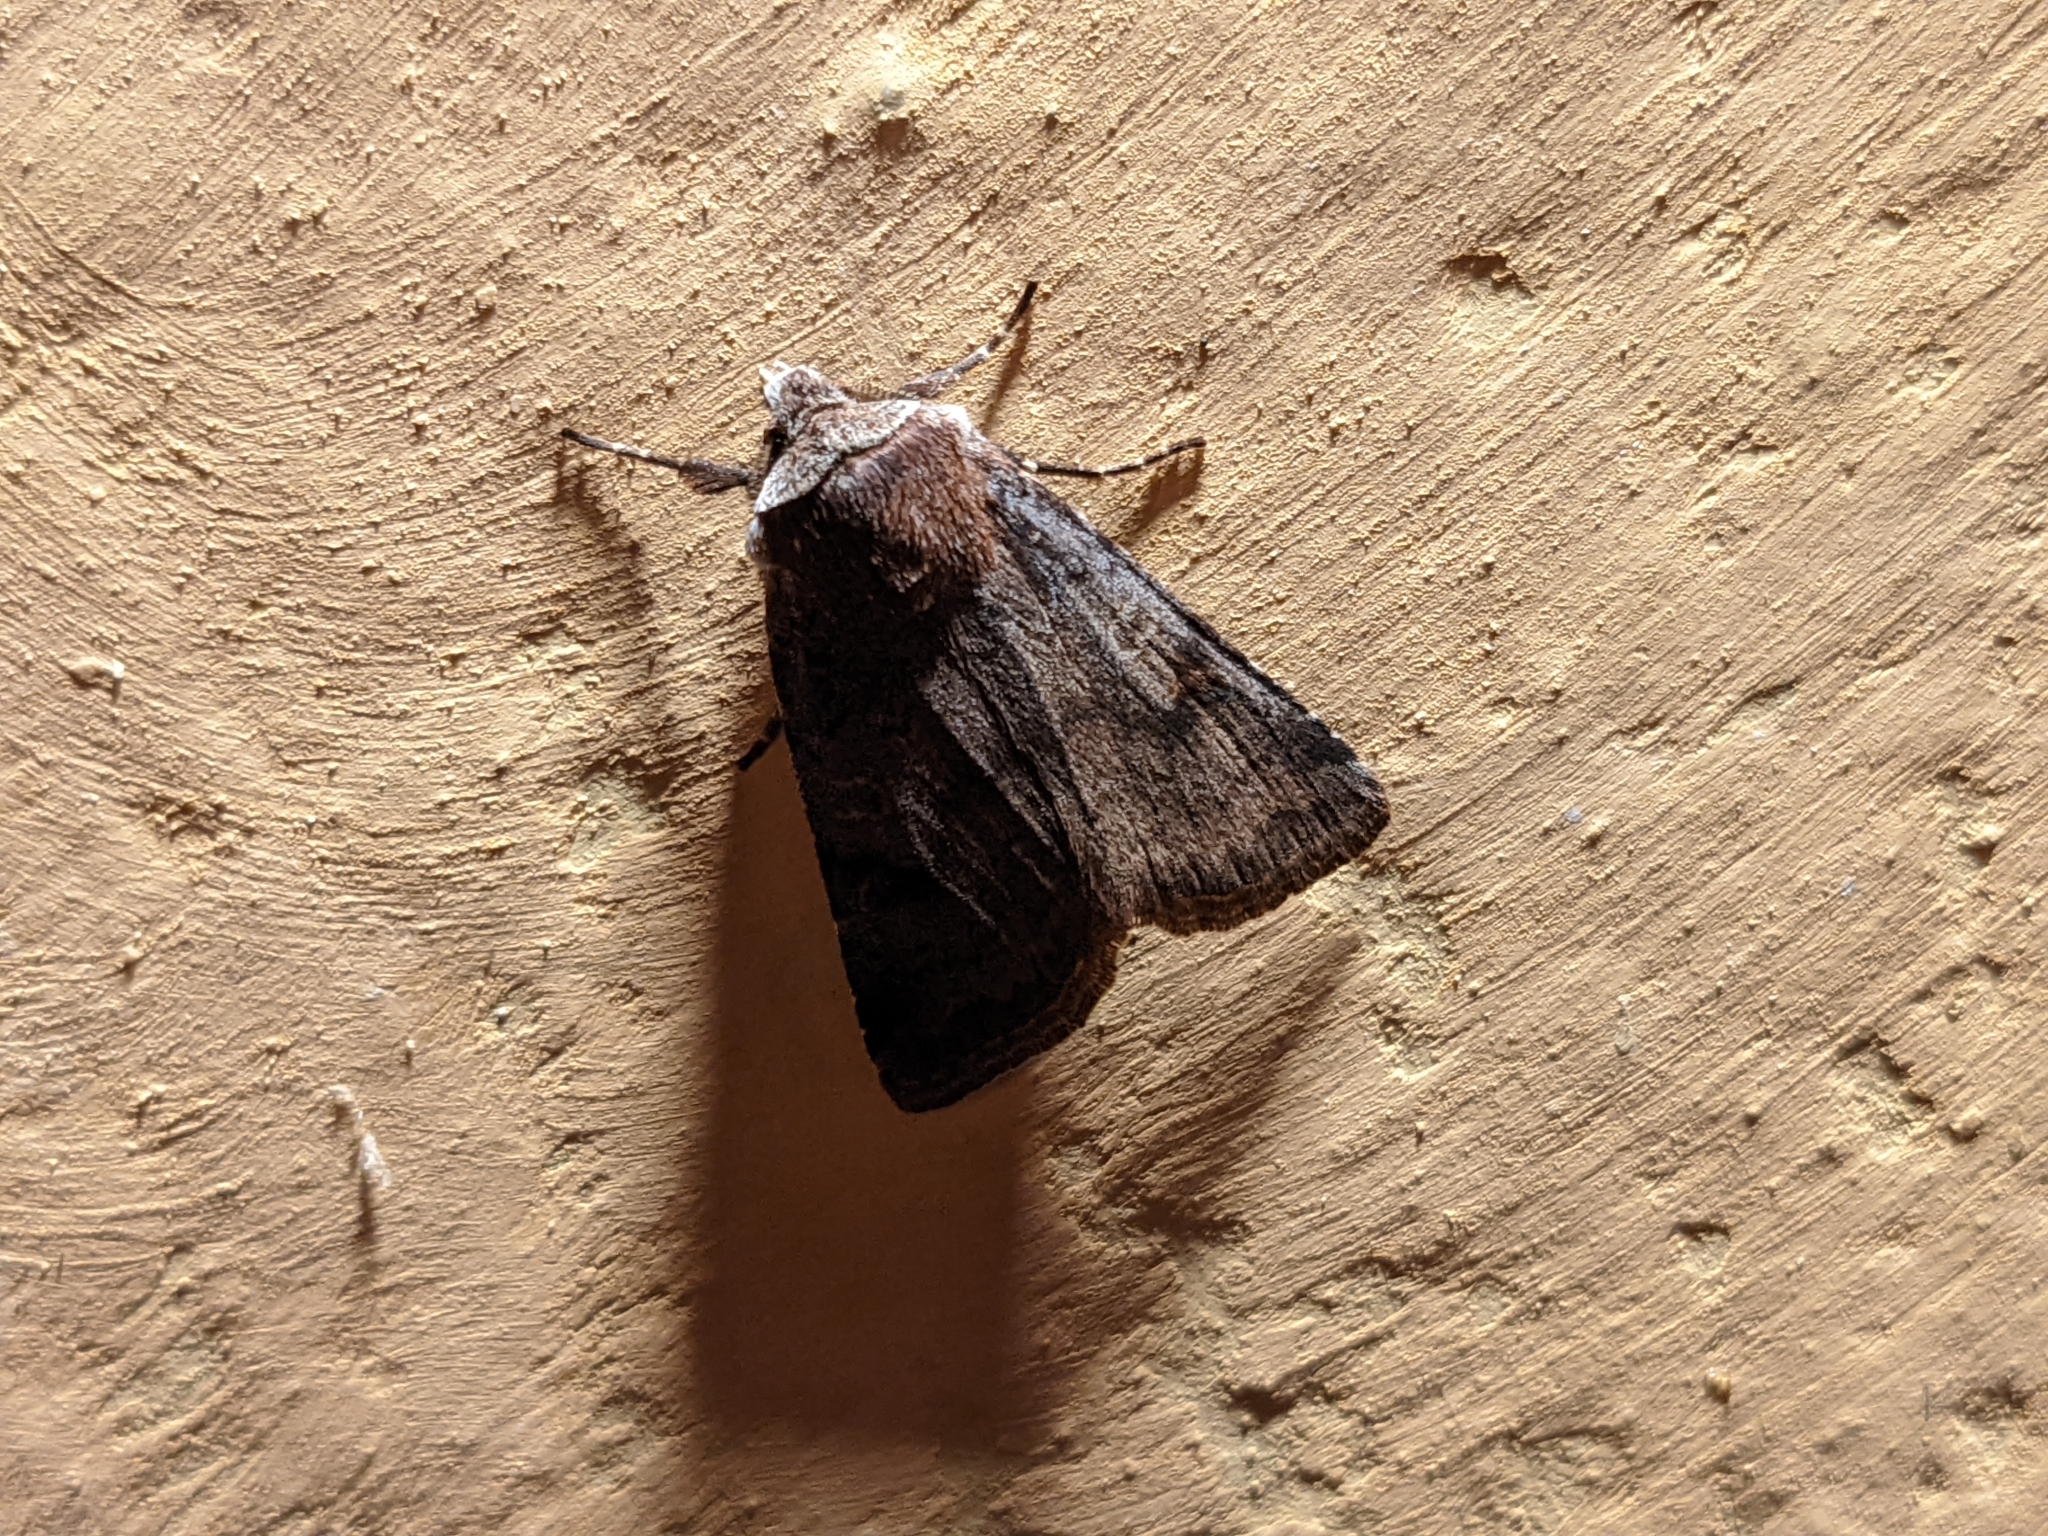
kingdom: Animalia
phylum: Arthropoda
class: Insecta
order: Lepidoptera
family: Noctuidae
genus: Cerastis
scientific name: Cerastis faceta
